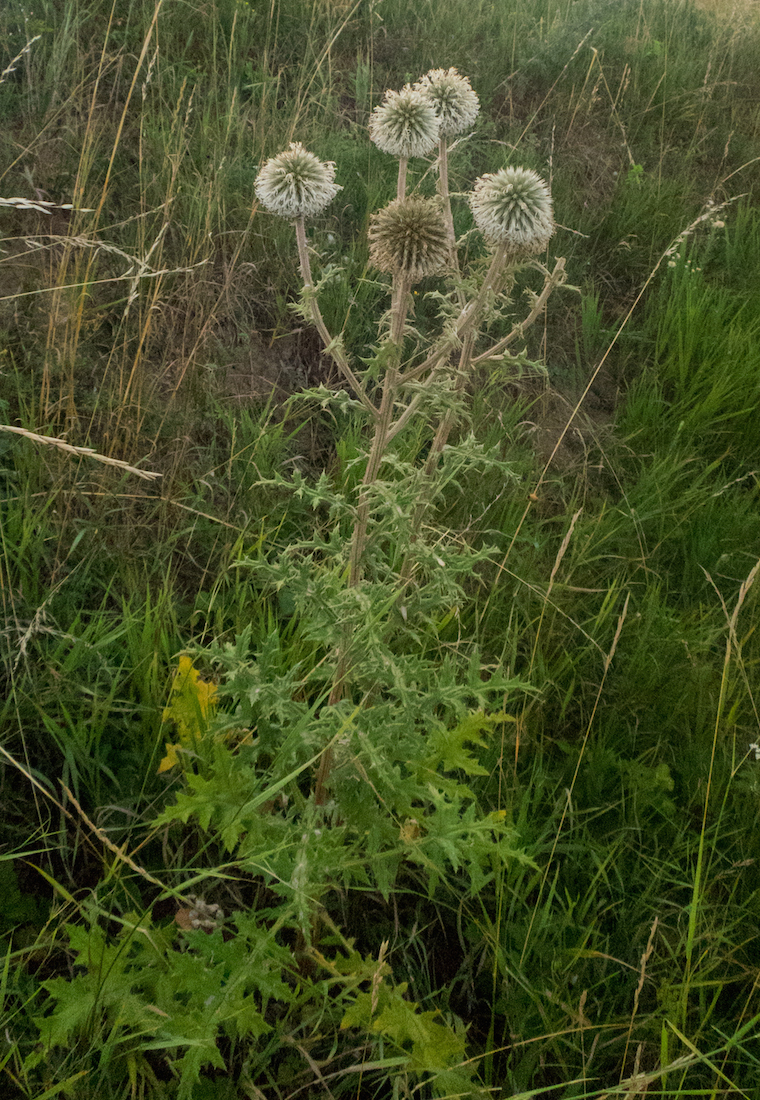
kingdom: Plantae
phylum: Tracheophyta
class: Magnoliopsida
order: Asterales
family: Asteraceae
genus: Echinops
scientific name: Echinops sphaerocephalus
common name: Glandular globe-thistle
